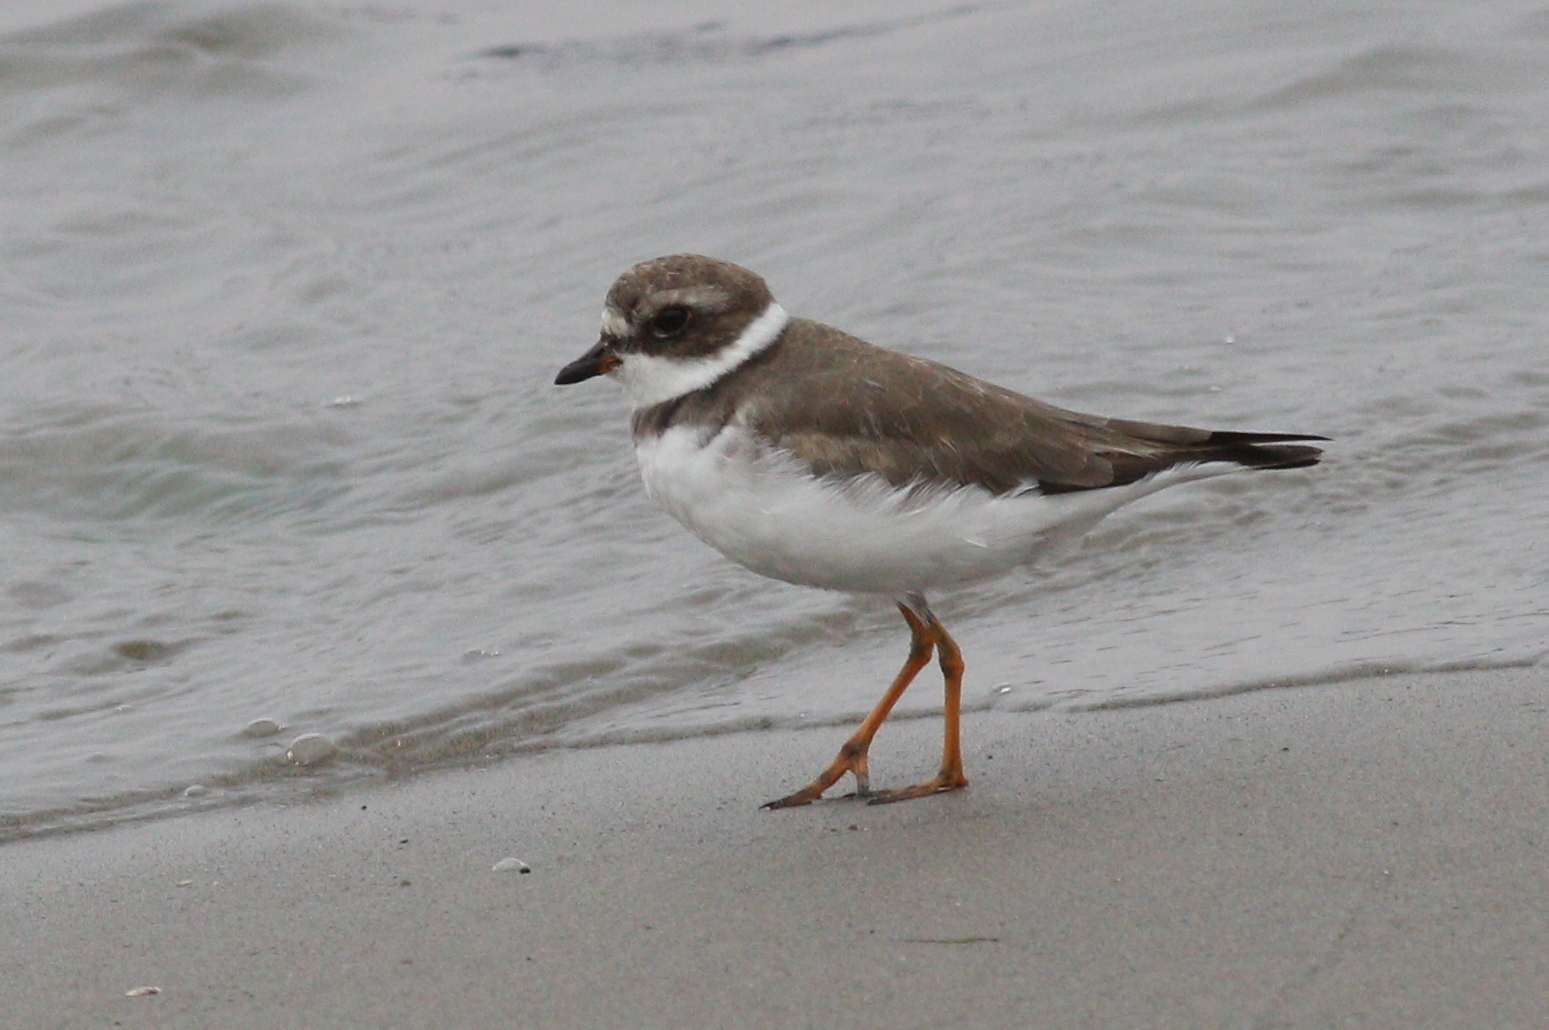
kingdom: Animalia
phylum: Chordata
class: Aves
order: Charadriiformes
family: Charadriidae
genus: Charadrius
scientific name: Charadrius semipalmatus
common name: Semipalmated plover
